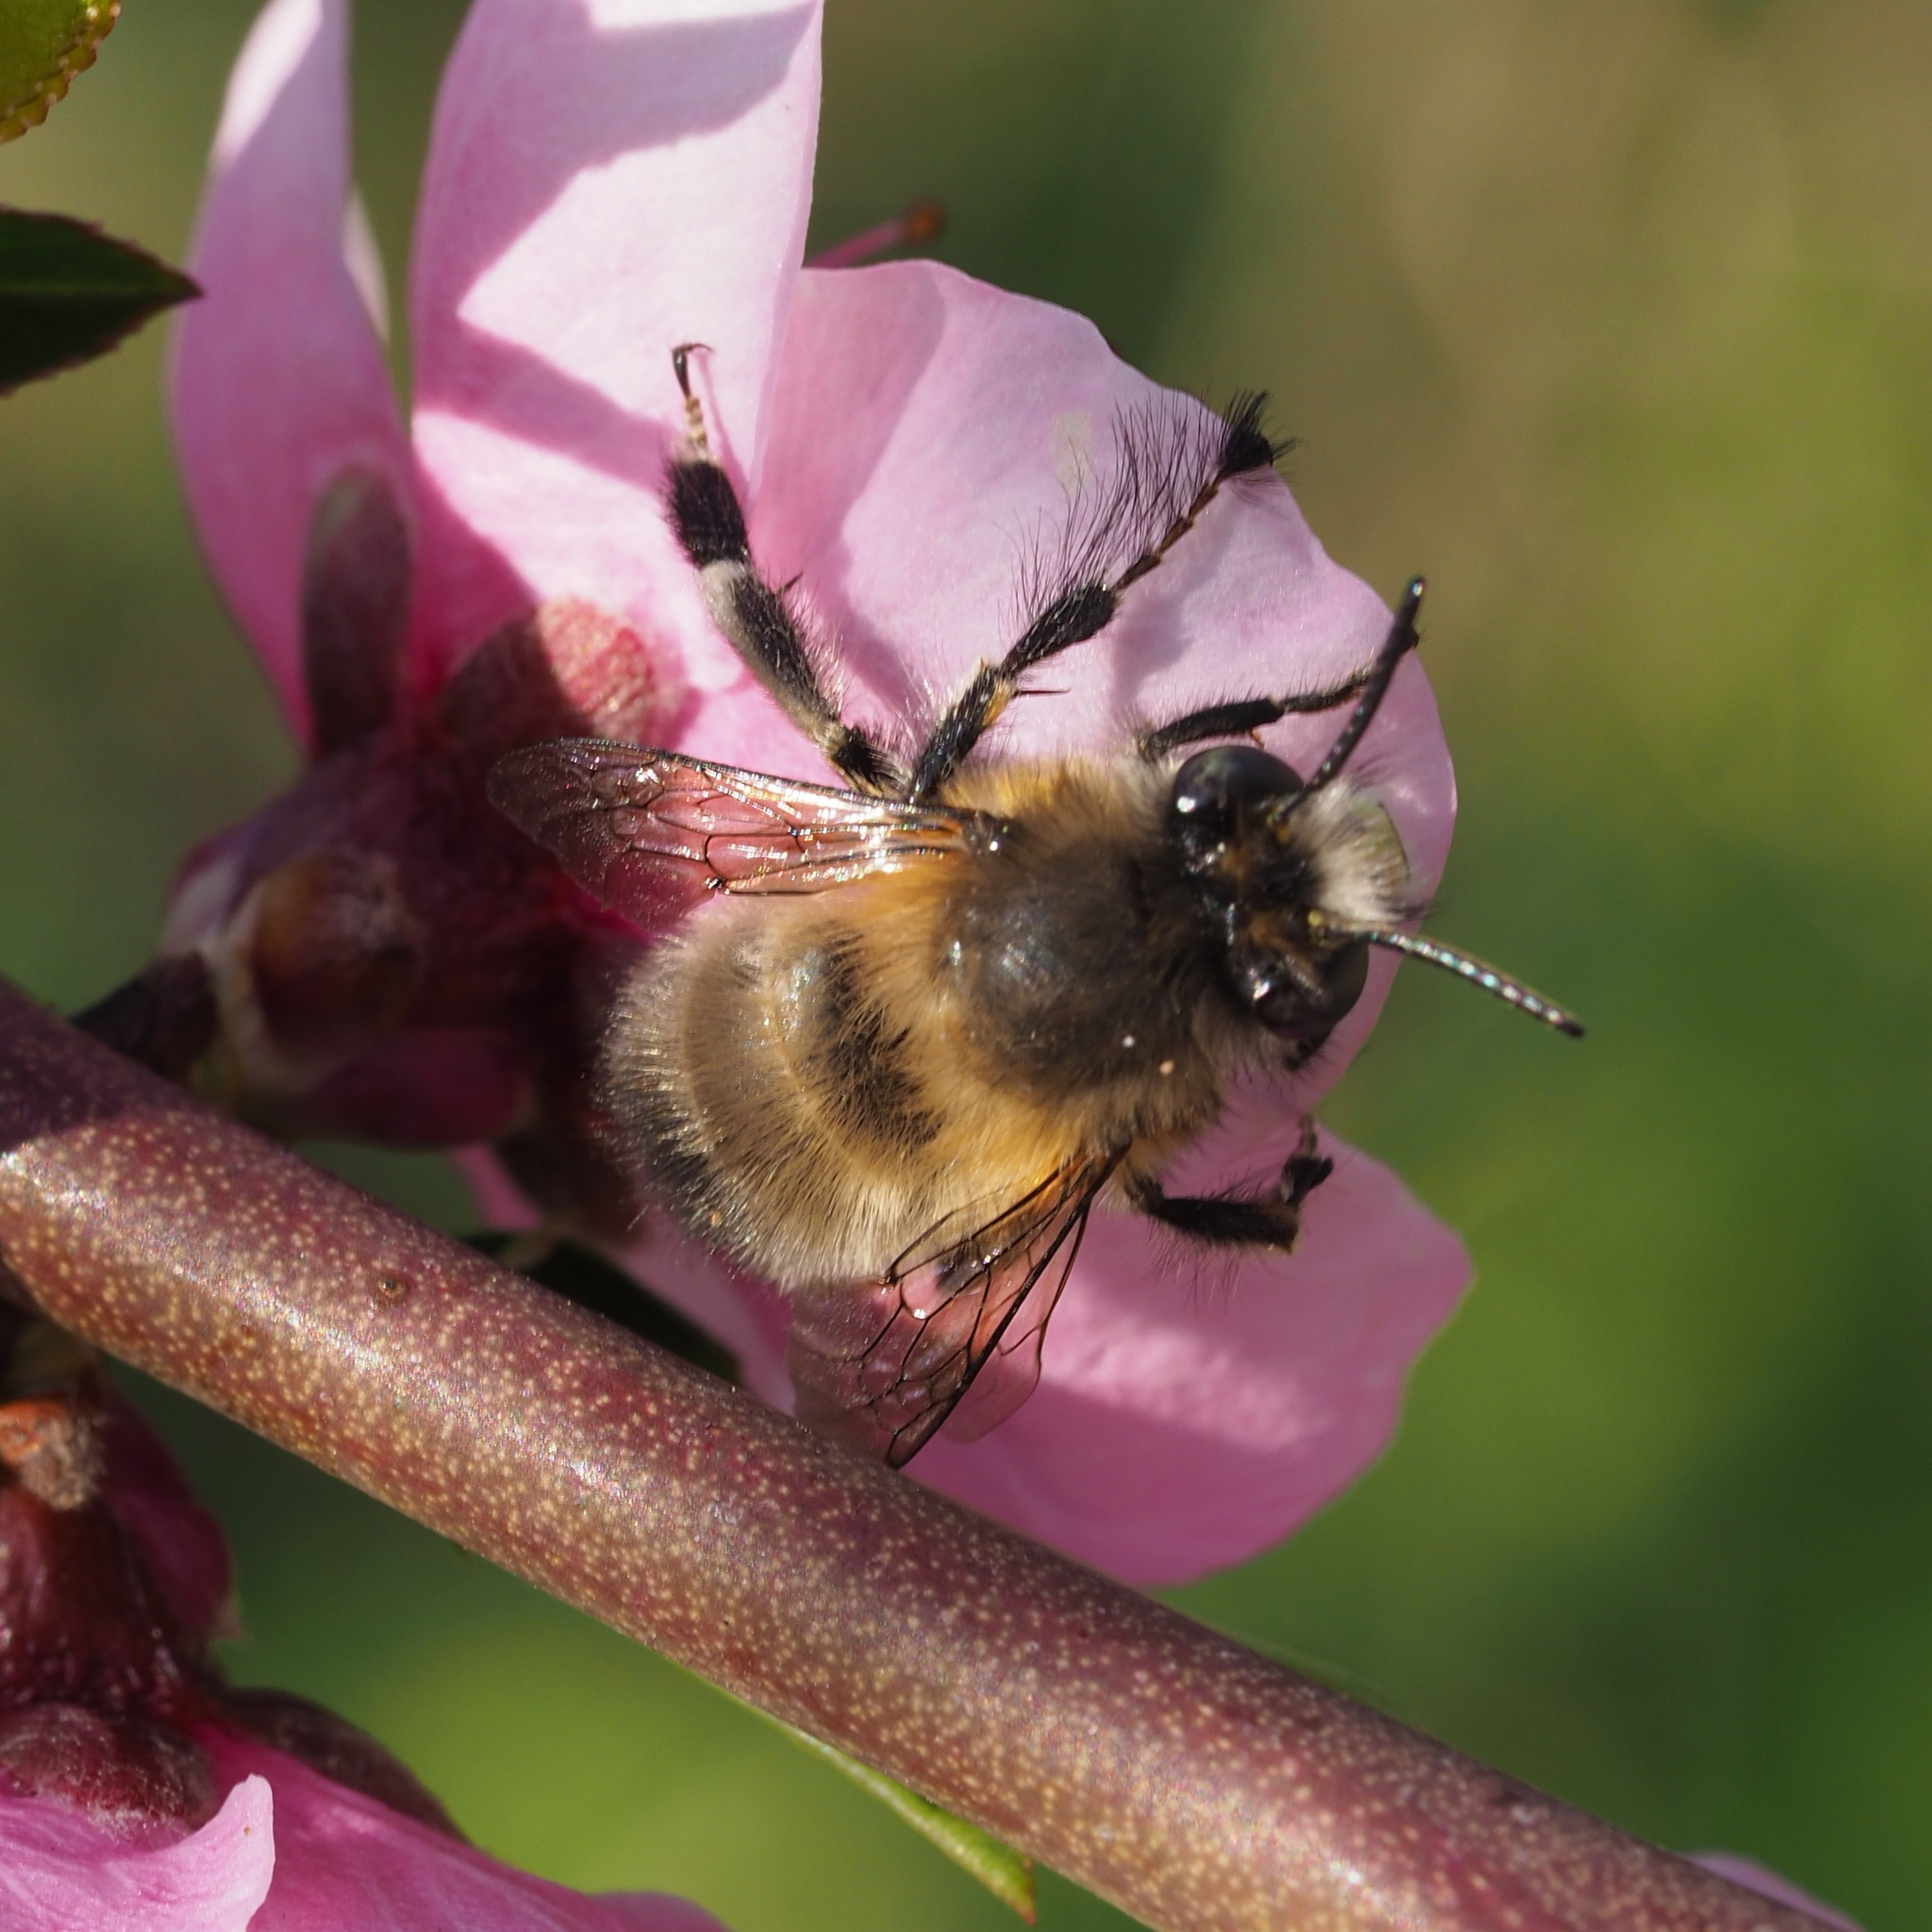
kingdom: Animalia
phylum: Arthropoda
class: Insecta
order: Hymenoptera
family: Apidae
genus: Anthophora
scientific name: Anthophora plumipes
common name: Hairy-footed flower bee
